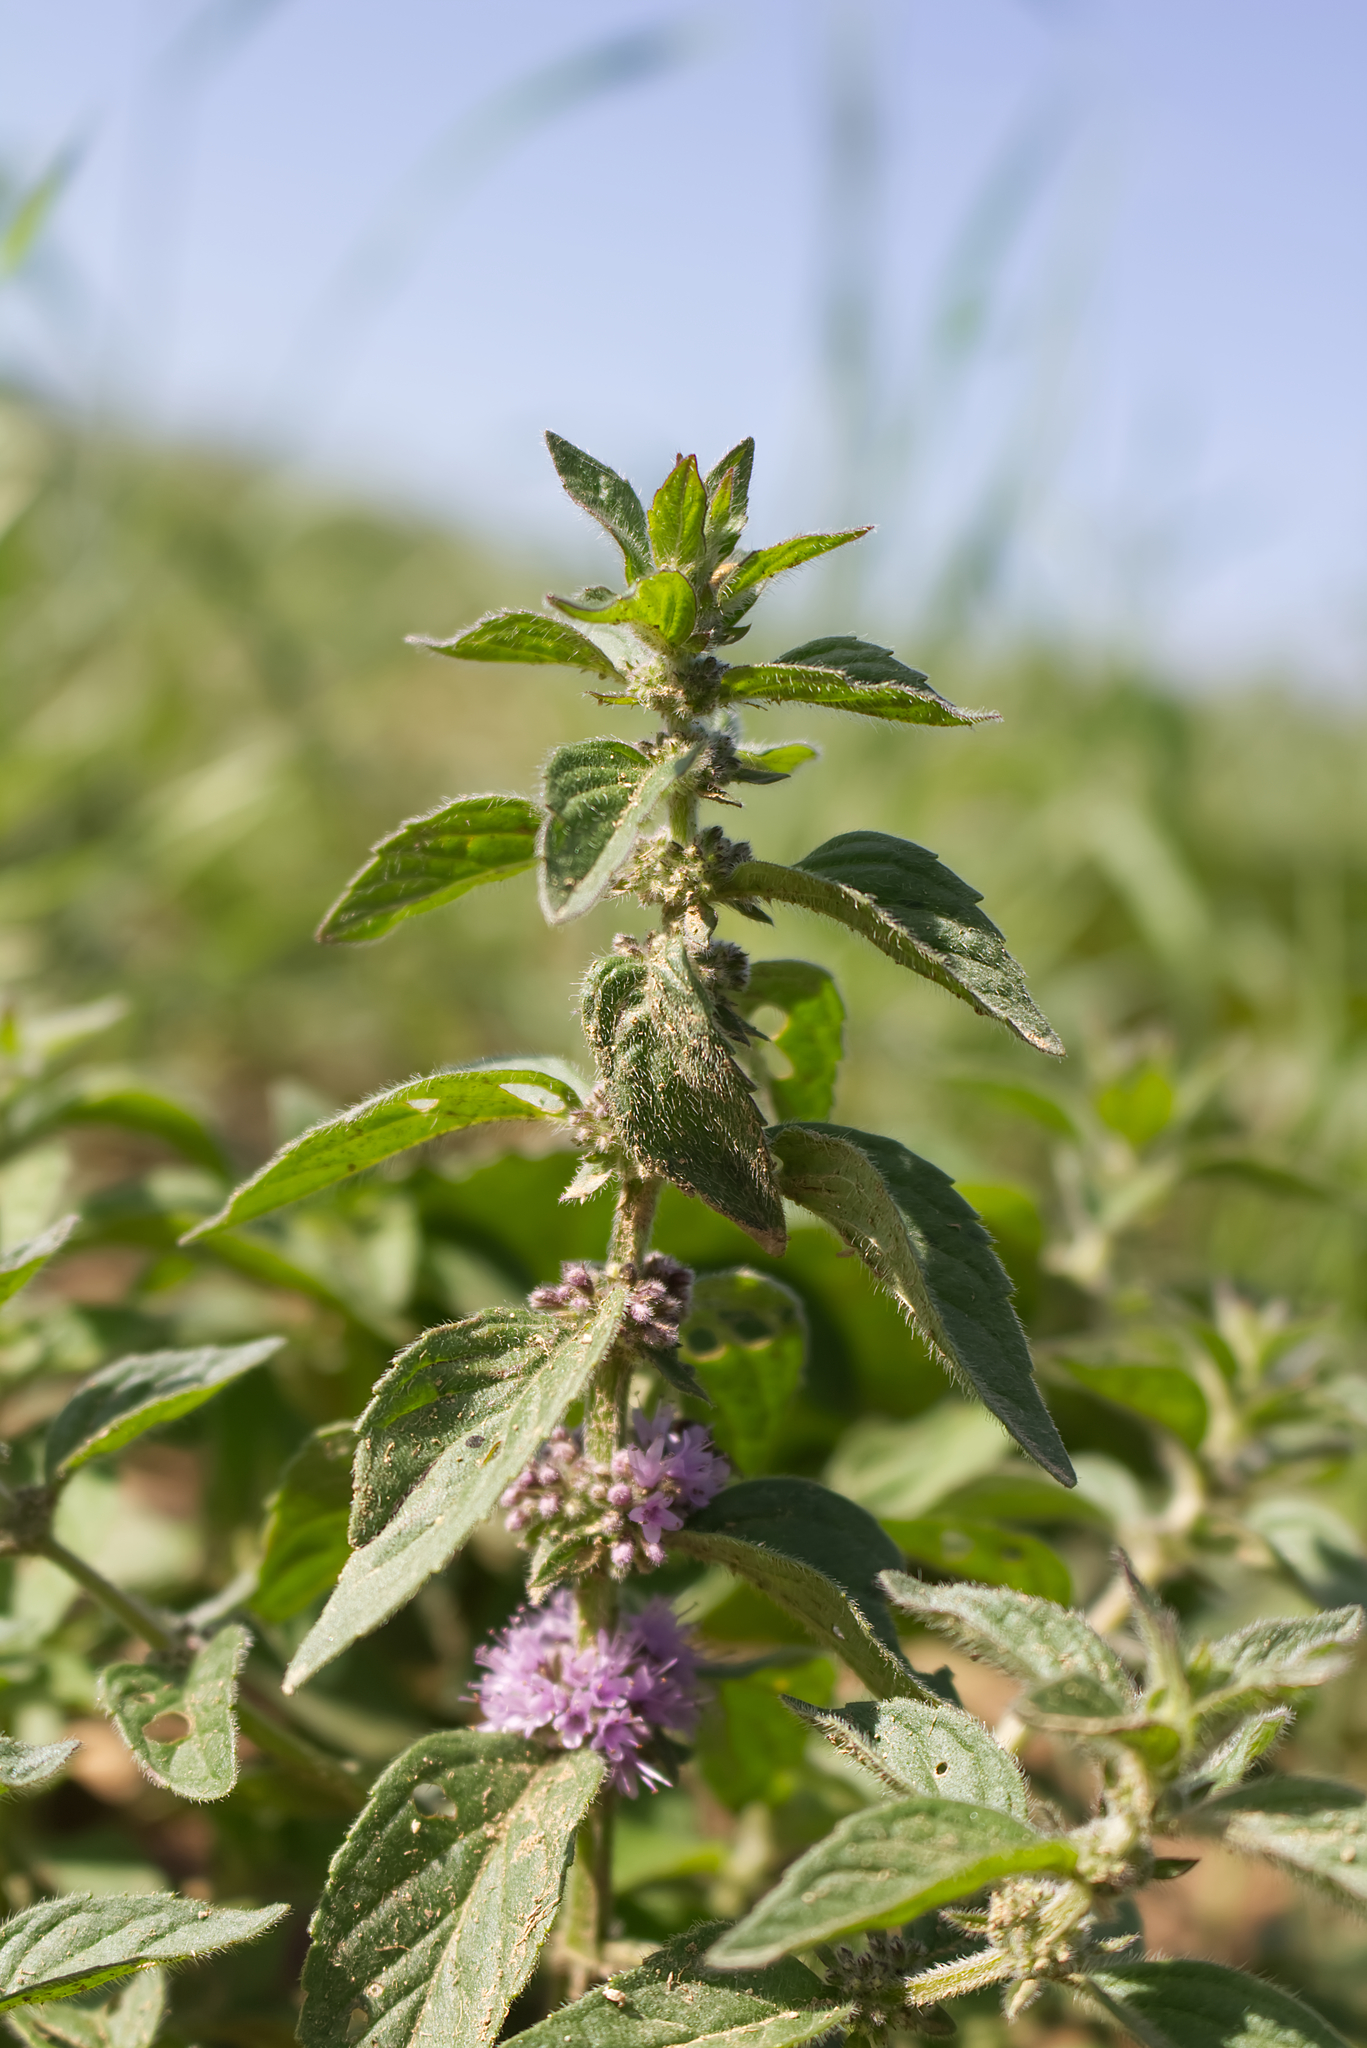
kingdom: Plantae
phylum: Tracheophyta
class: Magnoliopsida
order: Lamiales
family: Lamiaceae
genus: Mentha
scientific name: Mentha arvensis
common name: Corn mint
